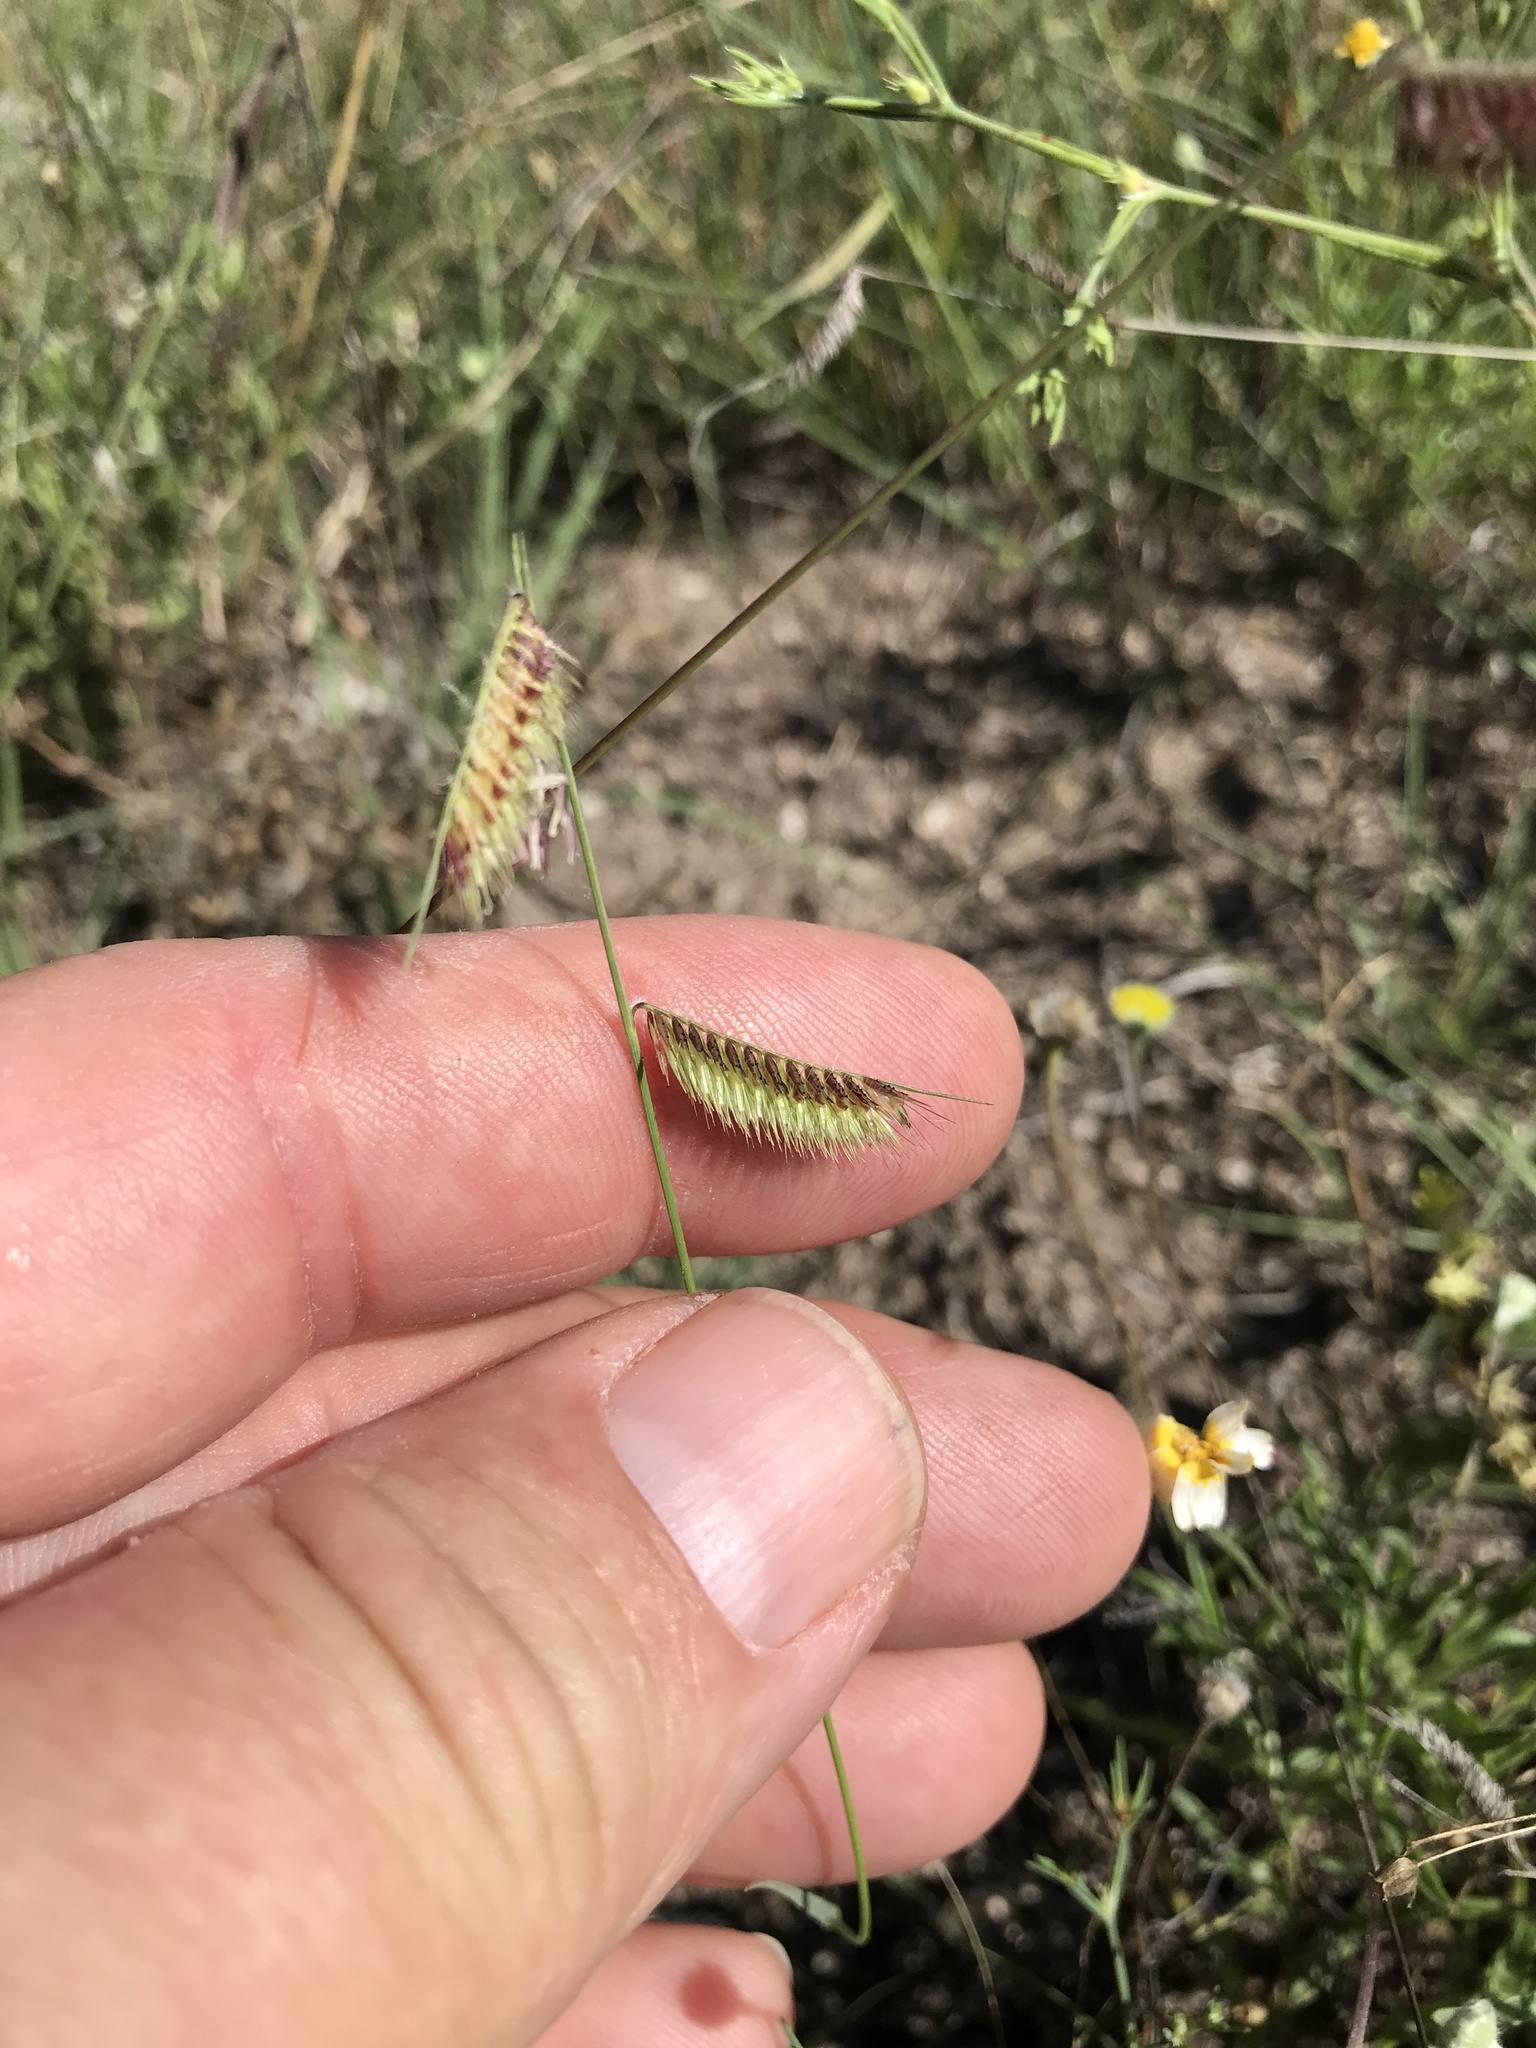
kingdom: Plantae
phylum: Tracheophyta
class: Liliopsida
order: Poales
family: Poaceae
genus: Bouteloua
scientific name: Bouteloua hirsuta
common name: Hairy grama
